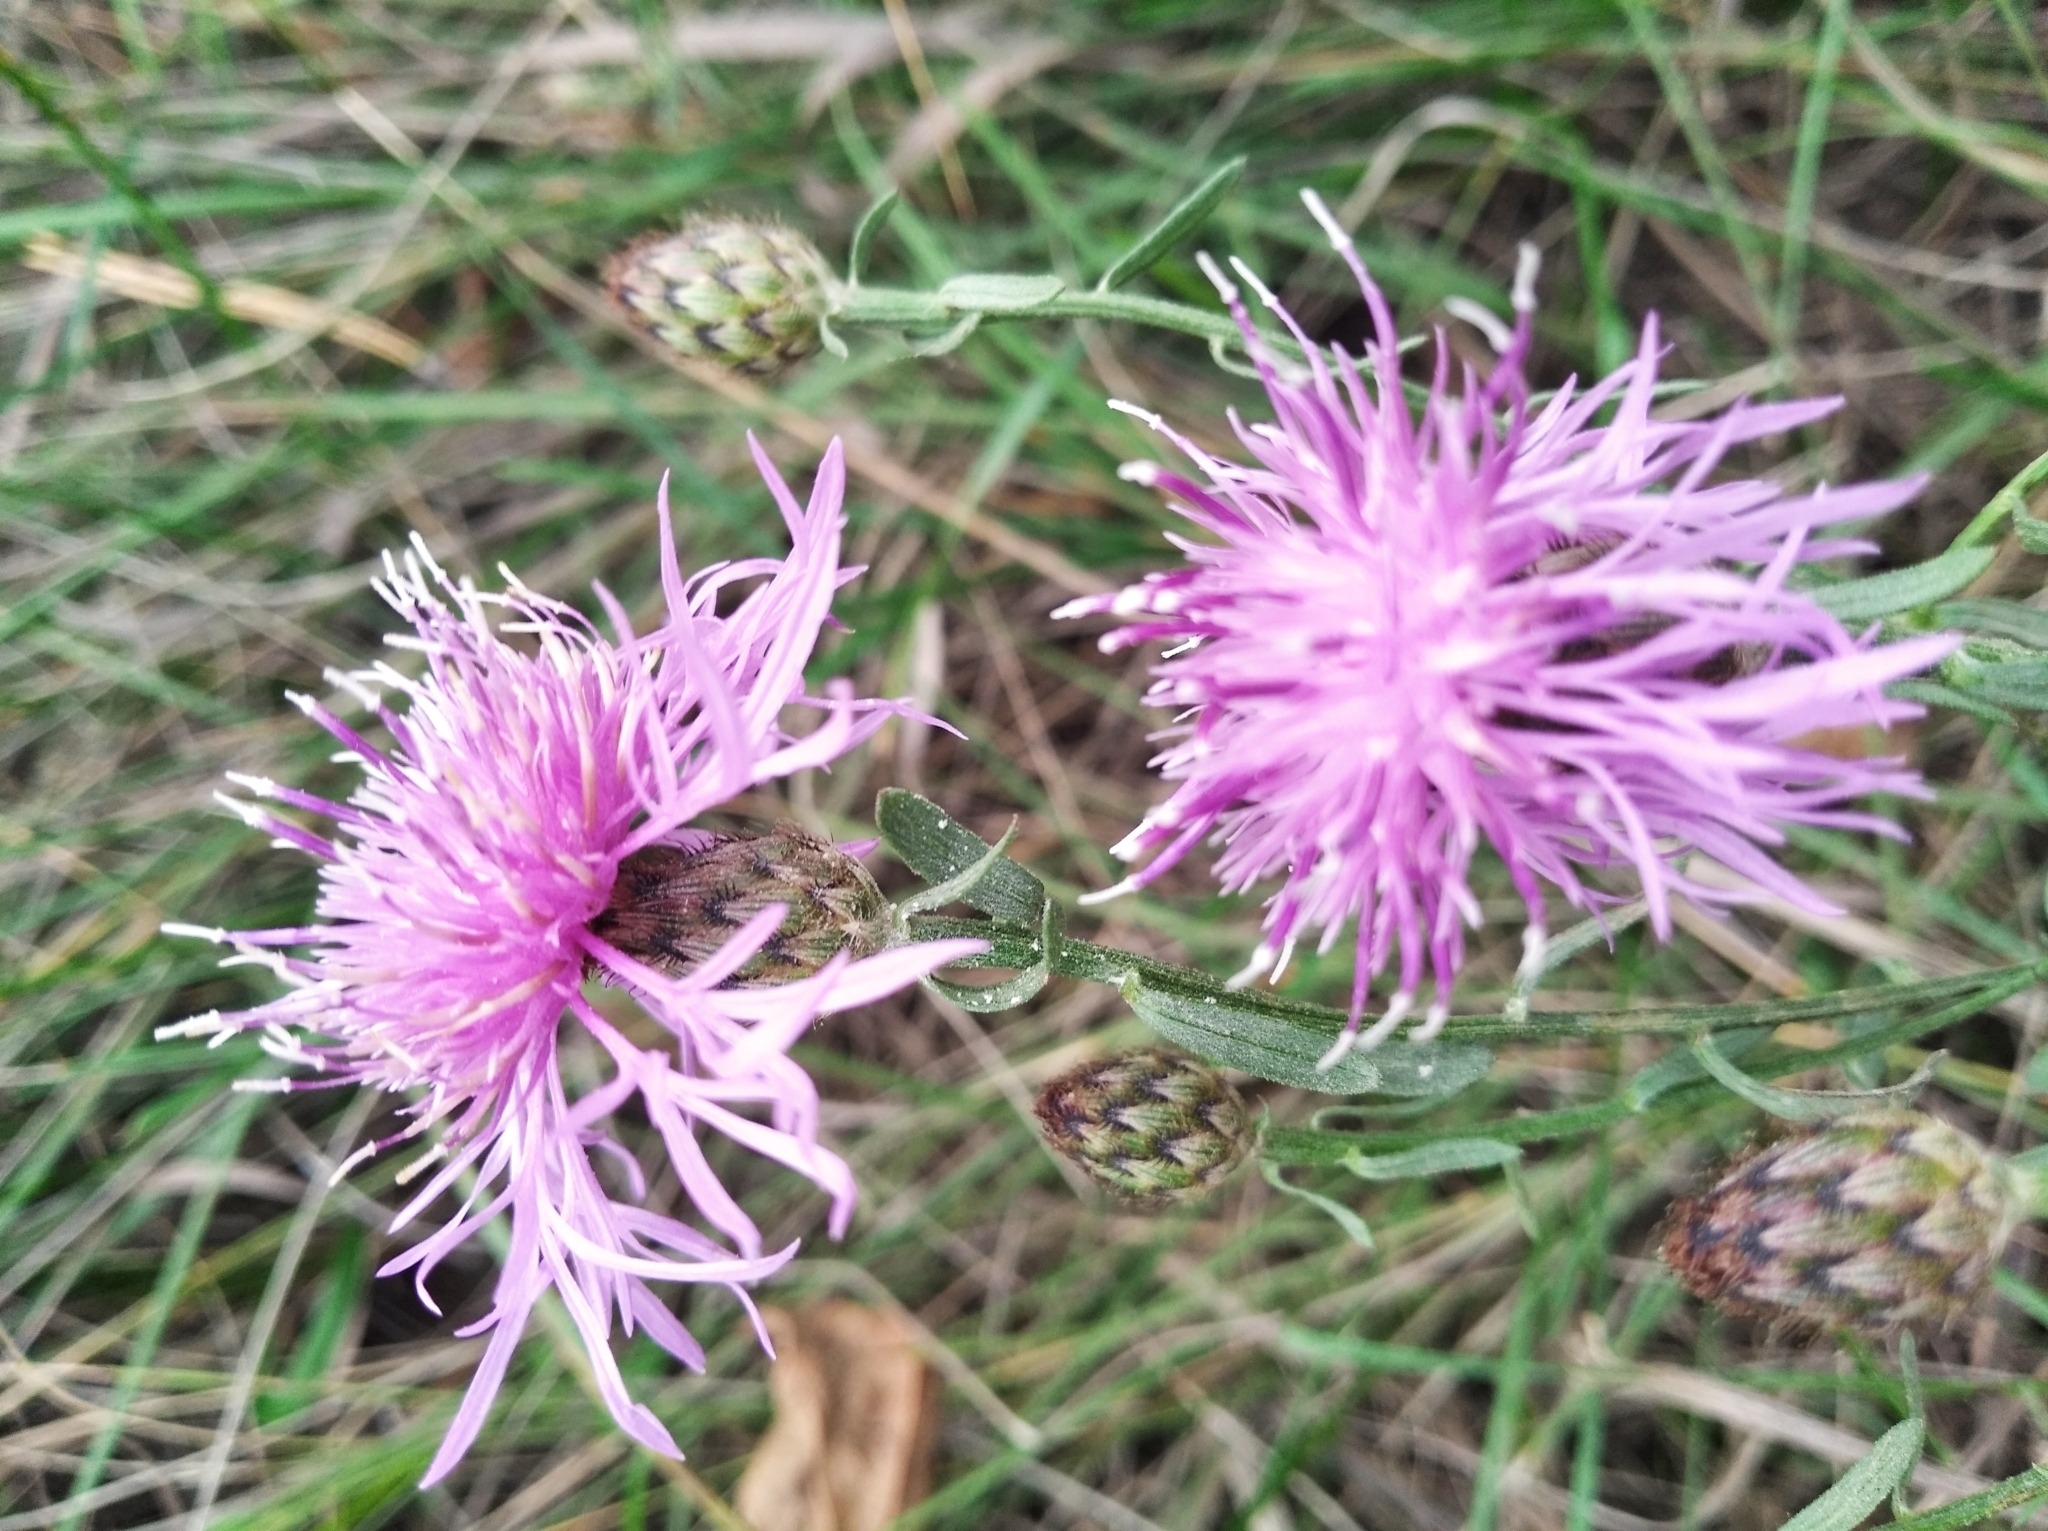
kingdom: Plantae
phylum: Tracheophyta
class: Magnoliopsida
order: Asterales
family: Asteraceae
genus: Centaurea
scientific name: Centaurea stoebe
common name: Spotted knapweed
